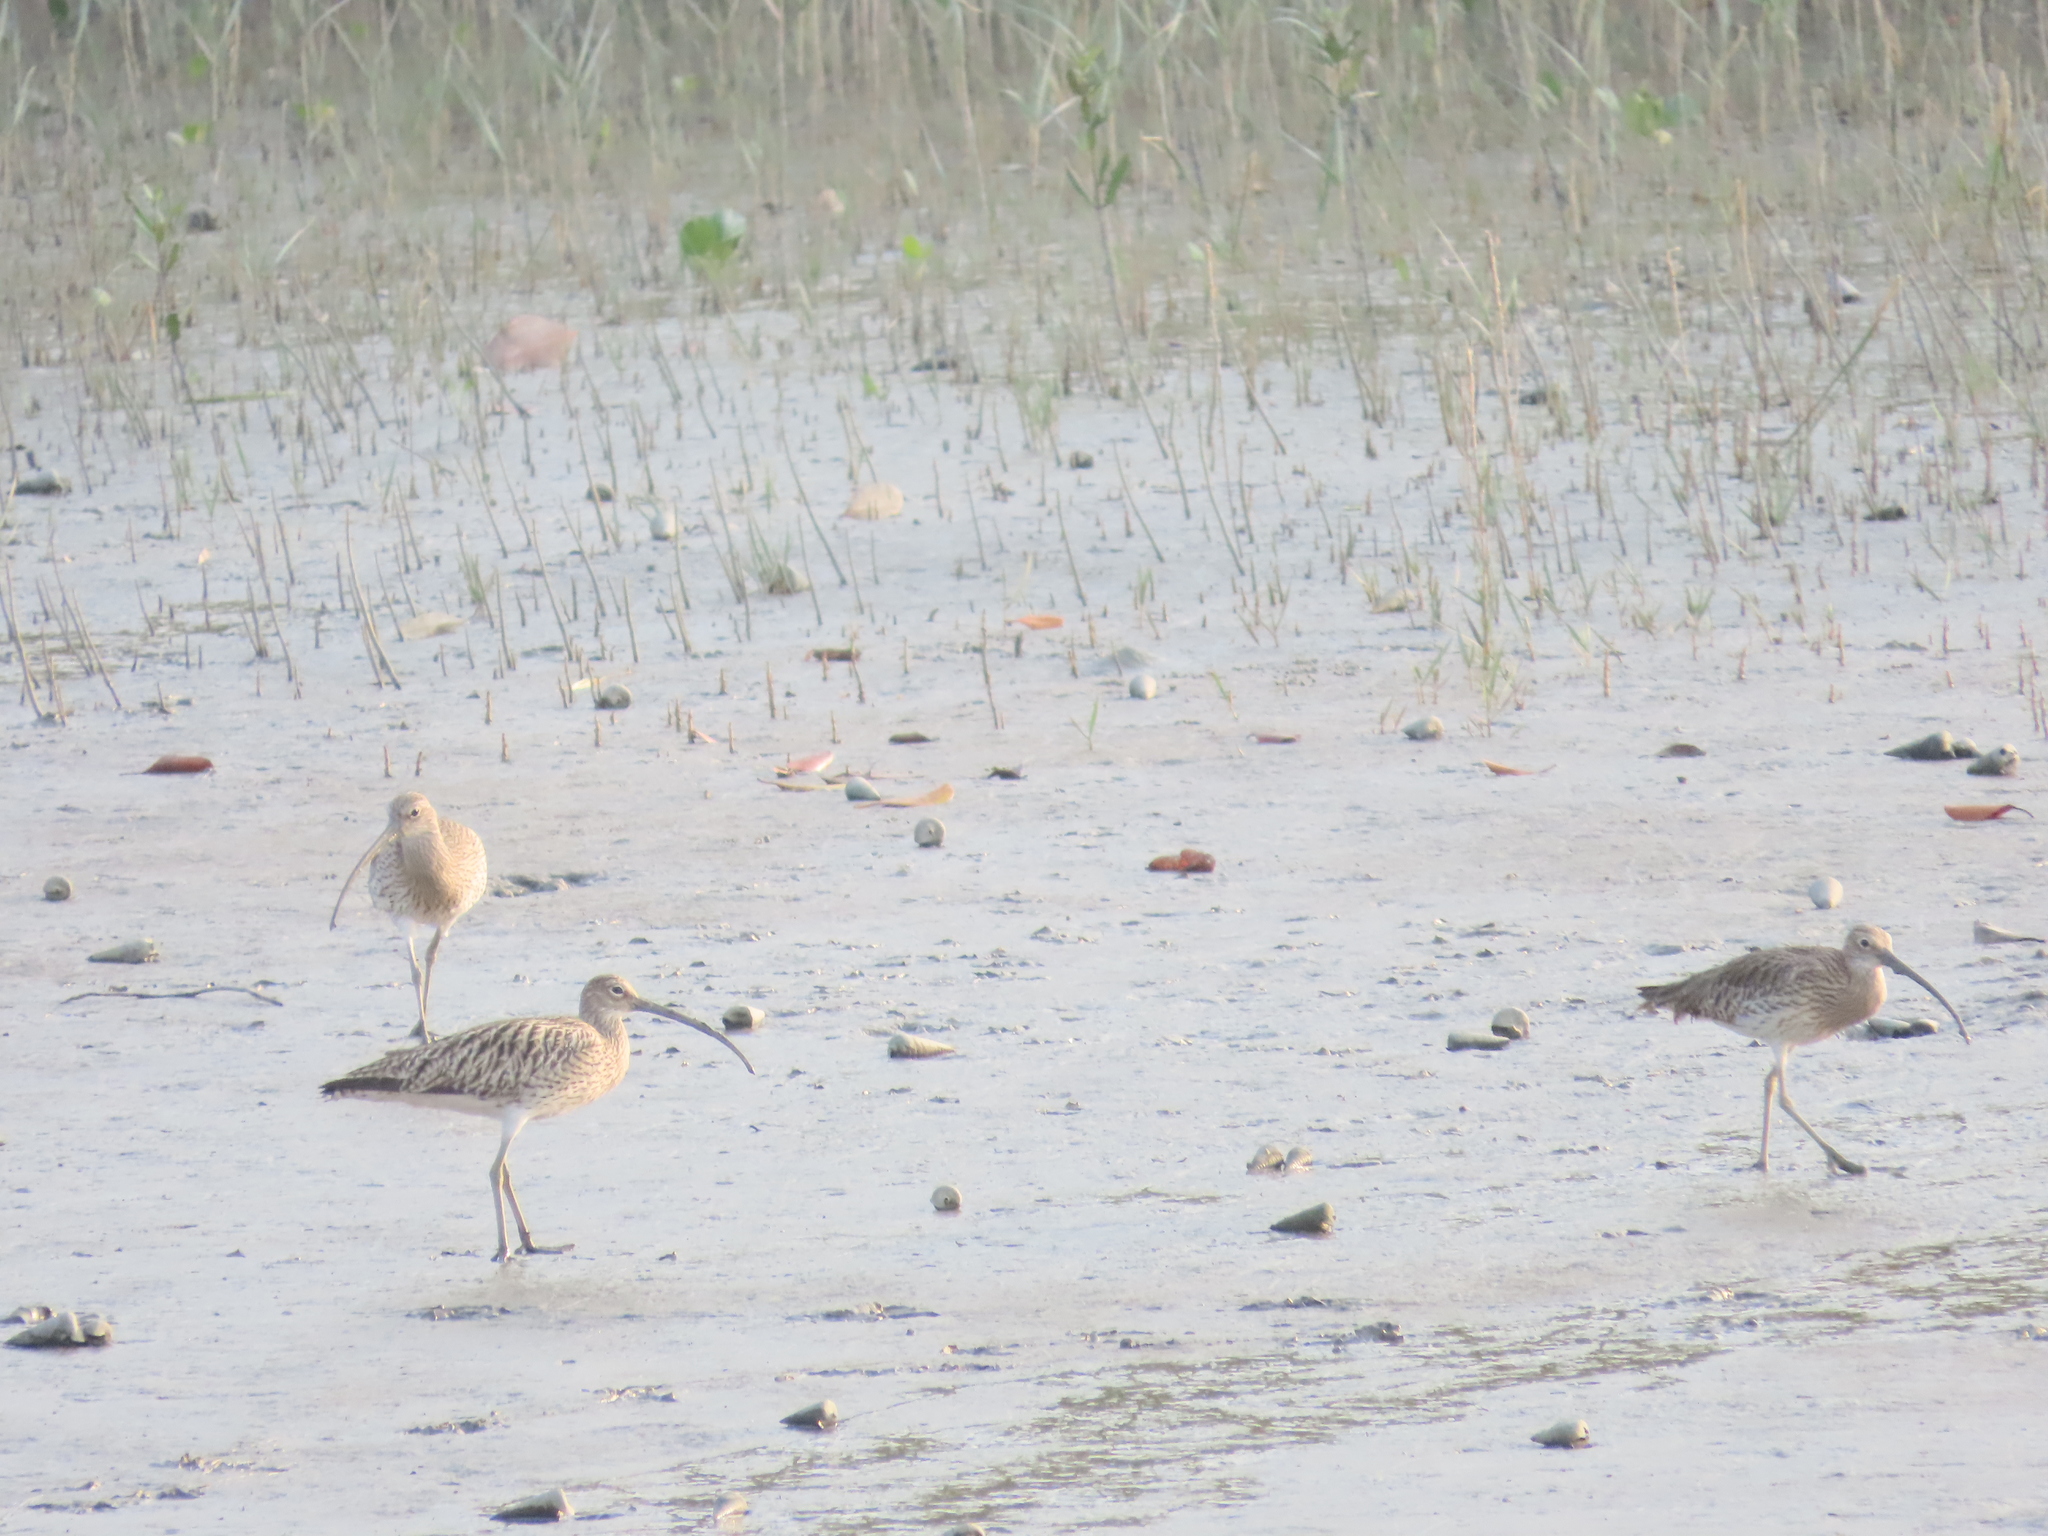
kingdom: Animalia
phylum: Chordata
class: Aves
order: Charadriiformes
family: Scolopacidae
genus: Numenius
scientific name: Numenius arquata
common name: Eurasian curlew
